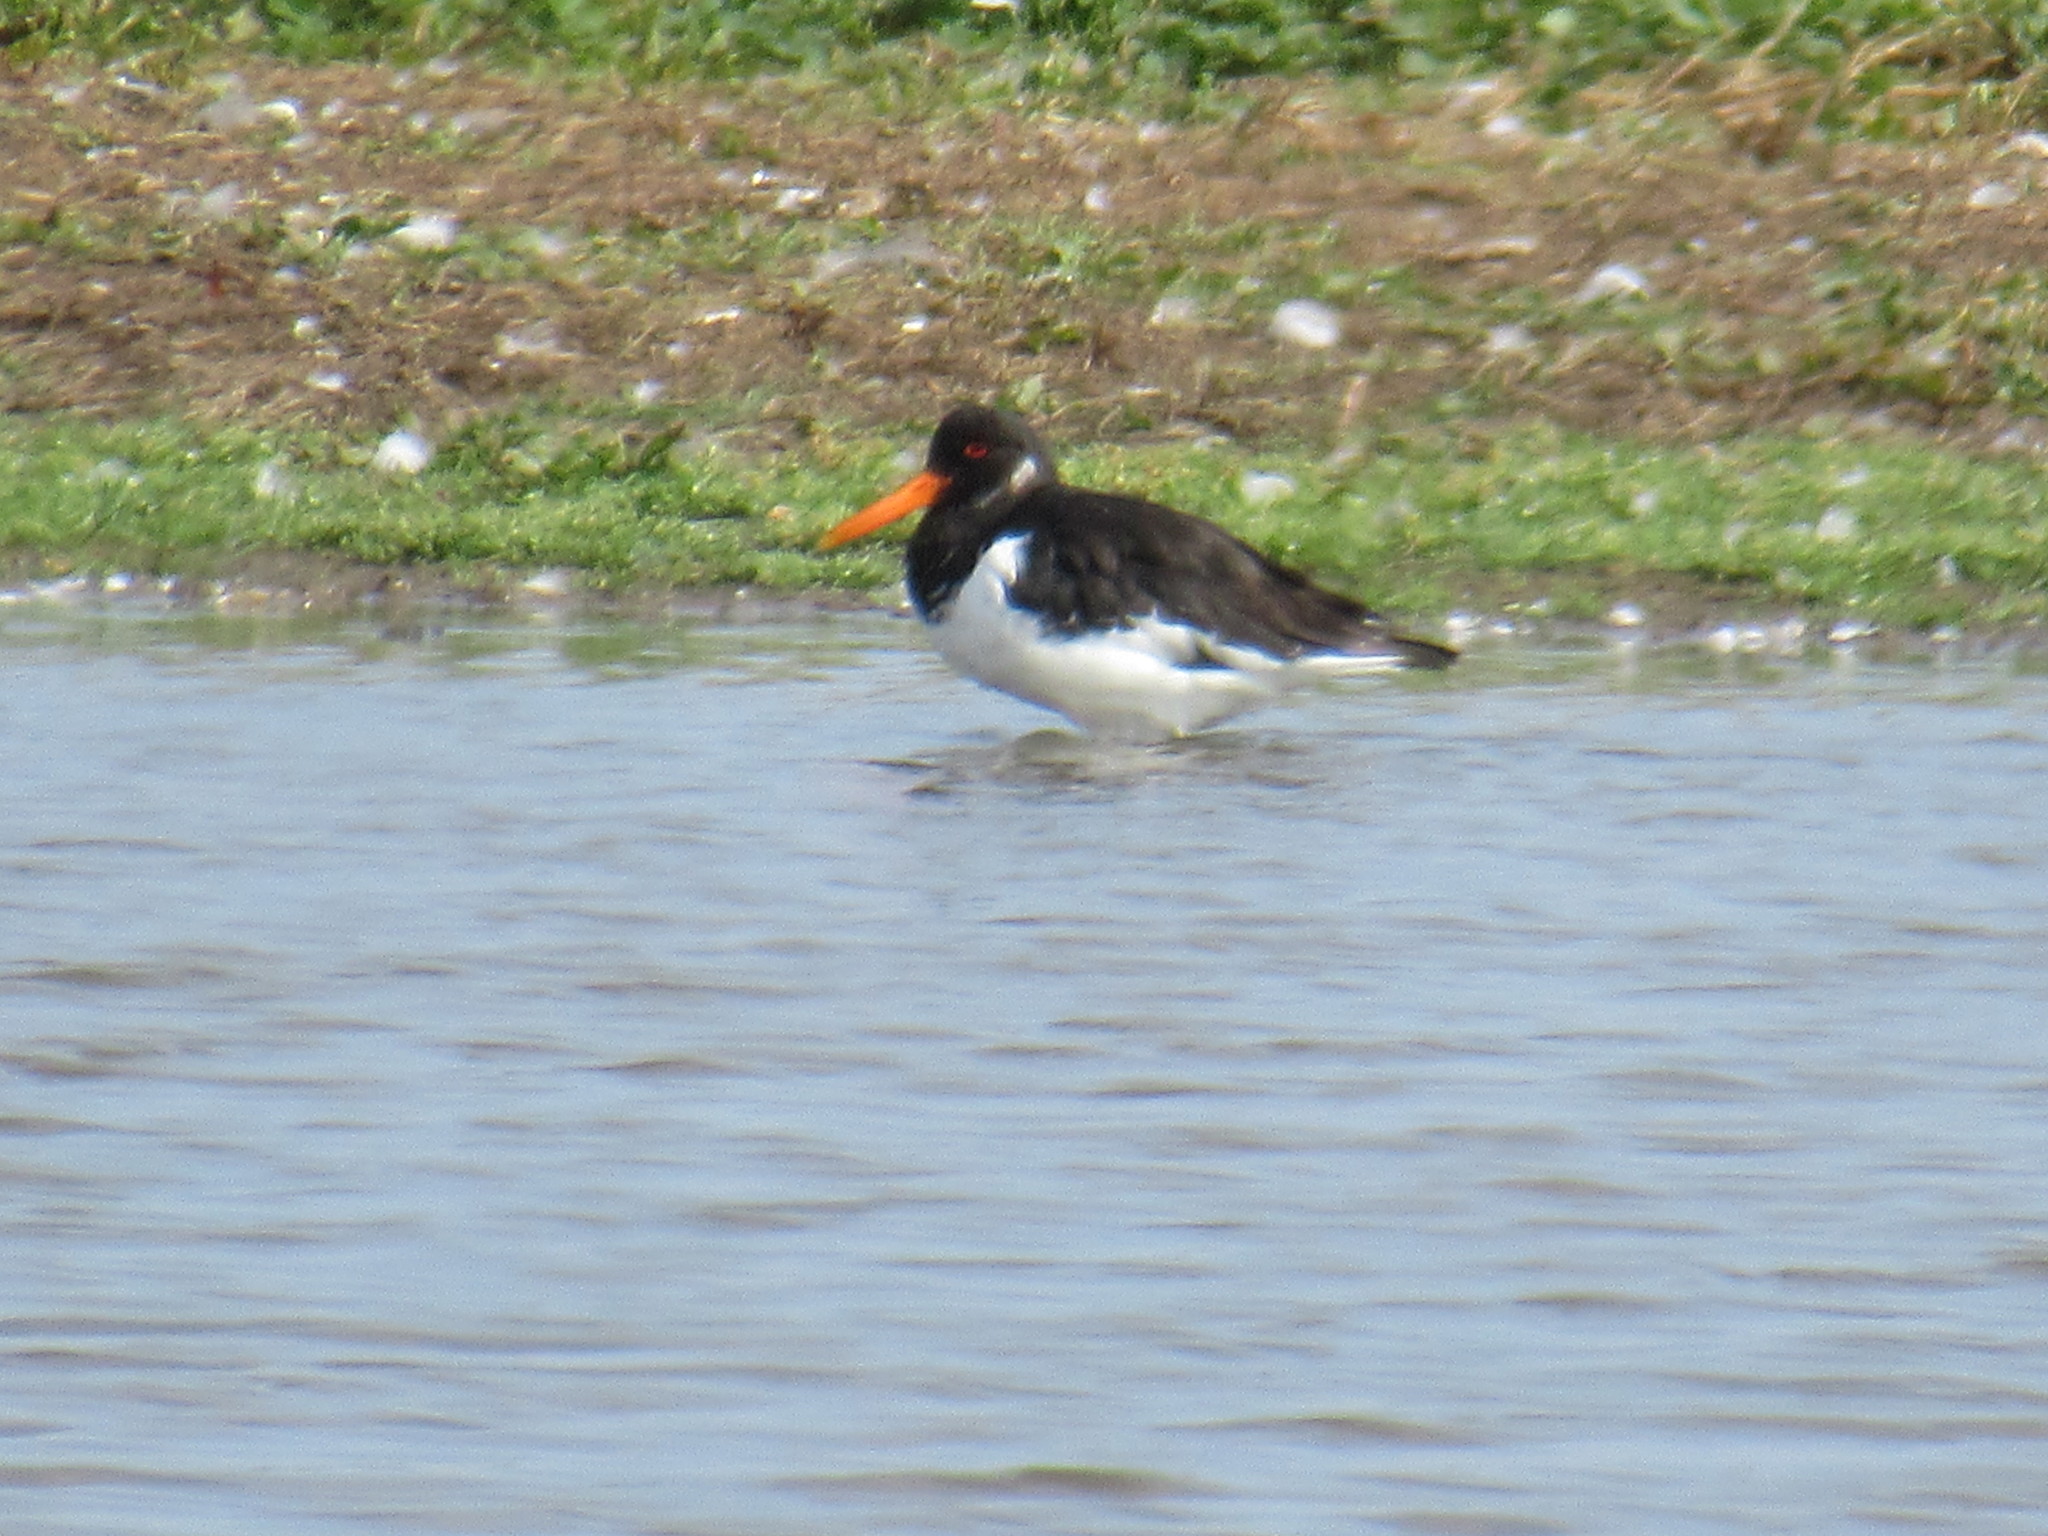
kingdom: Animalia
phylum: Chordata
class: Aves
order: Charadriiformes
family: Haematopodidae
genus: Haematopus
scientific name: Haematopus ostralegus
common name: Eurasian oystercatcher
